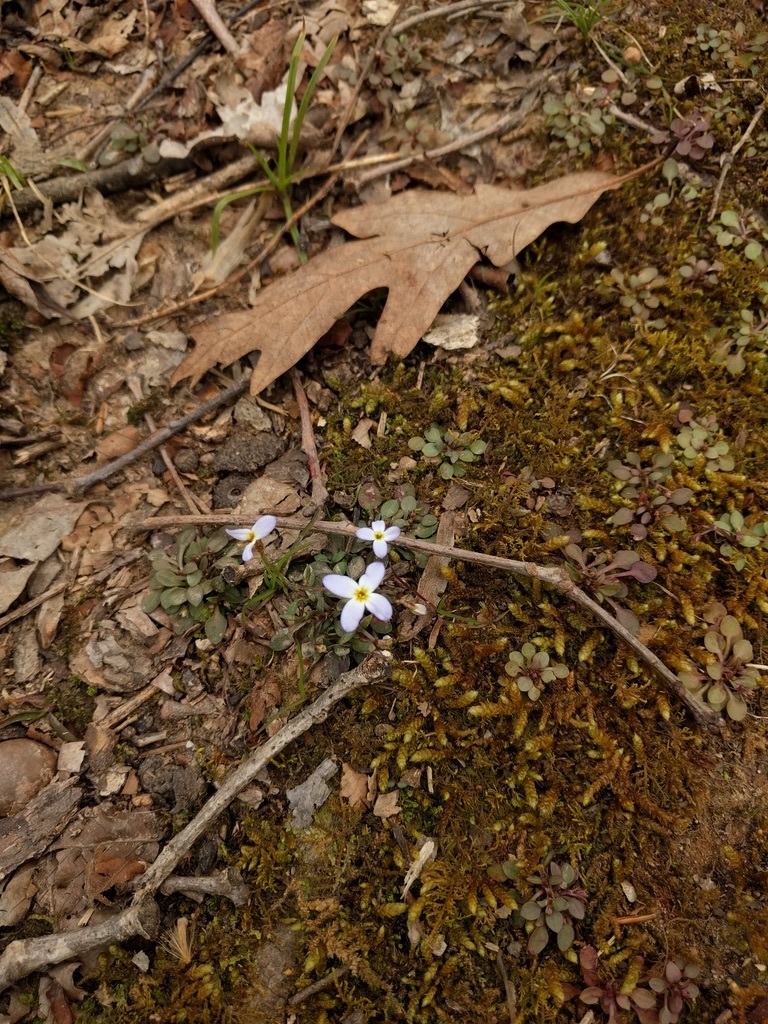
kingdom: Plantae
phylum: Tracheophyta
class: Magnoliopsida
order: Gentianales
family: Rubiaceae
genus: Houstonia
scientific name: Houstonia caerulea
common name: Bluets
